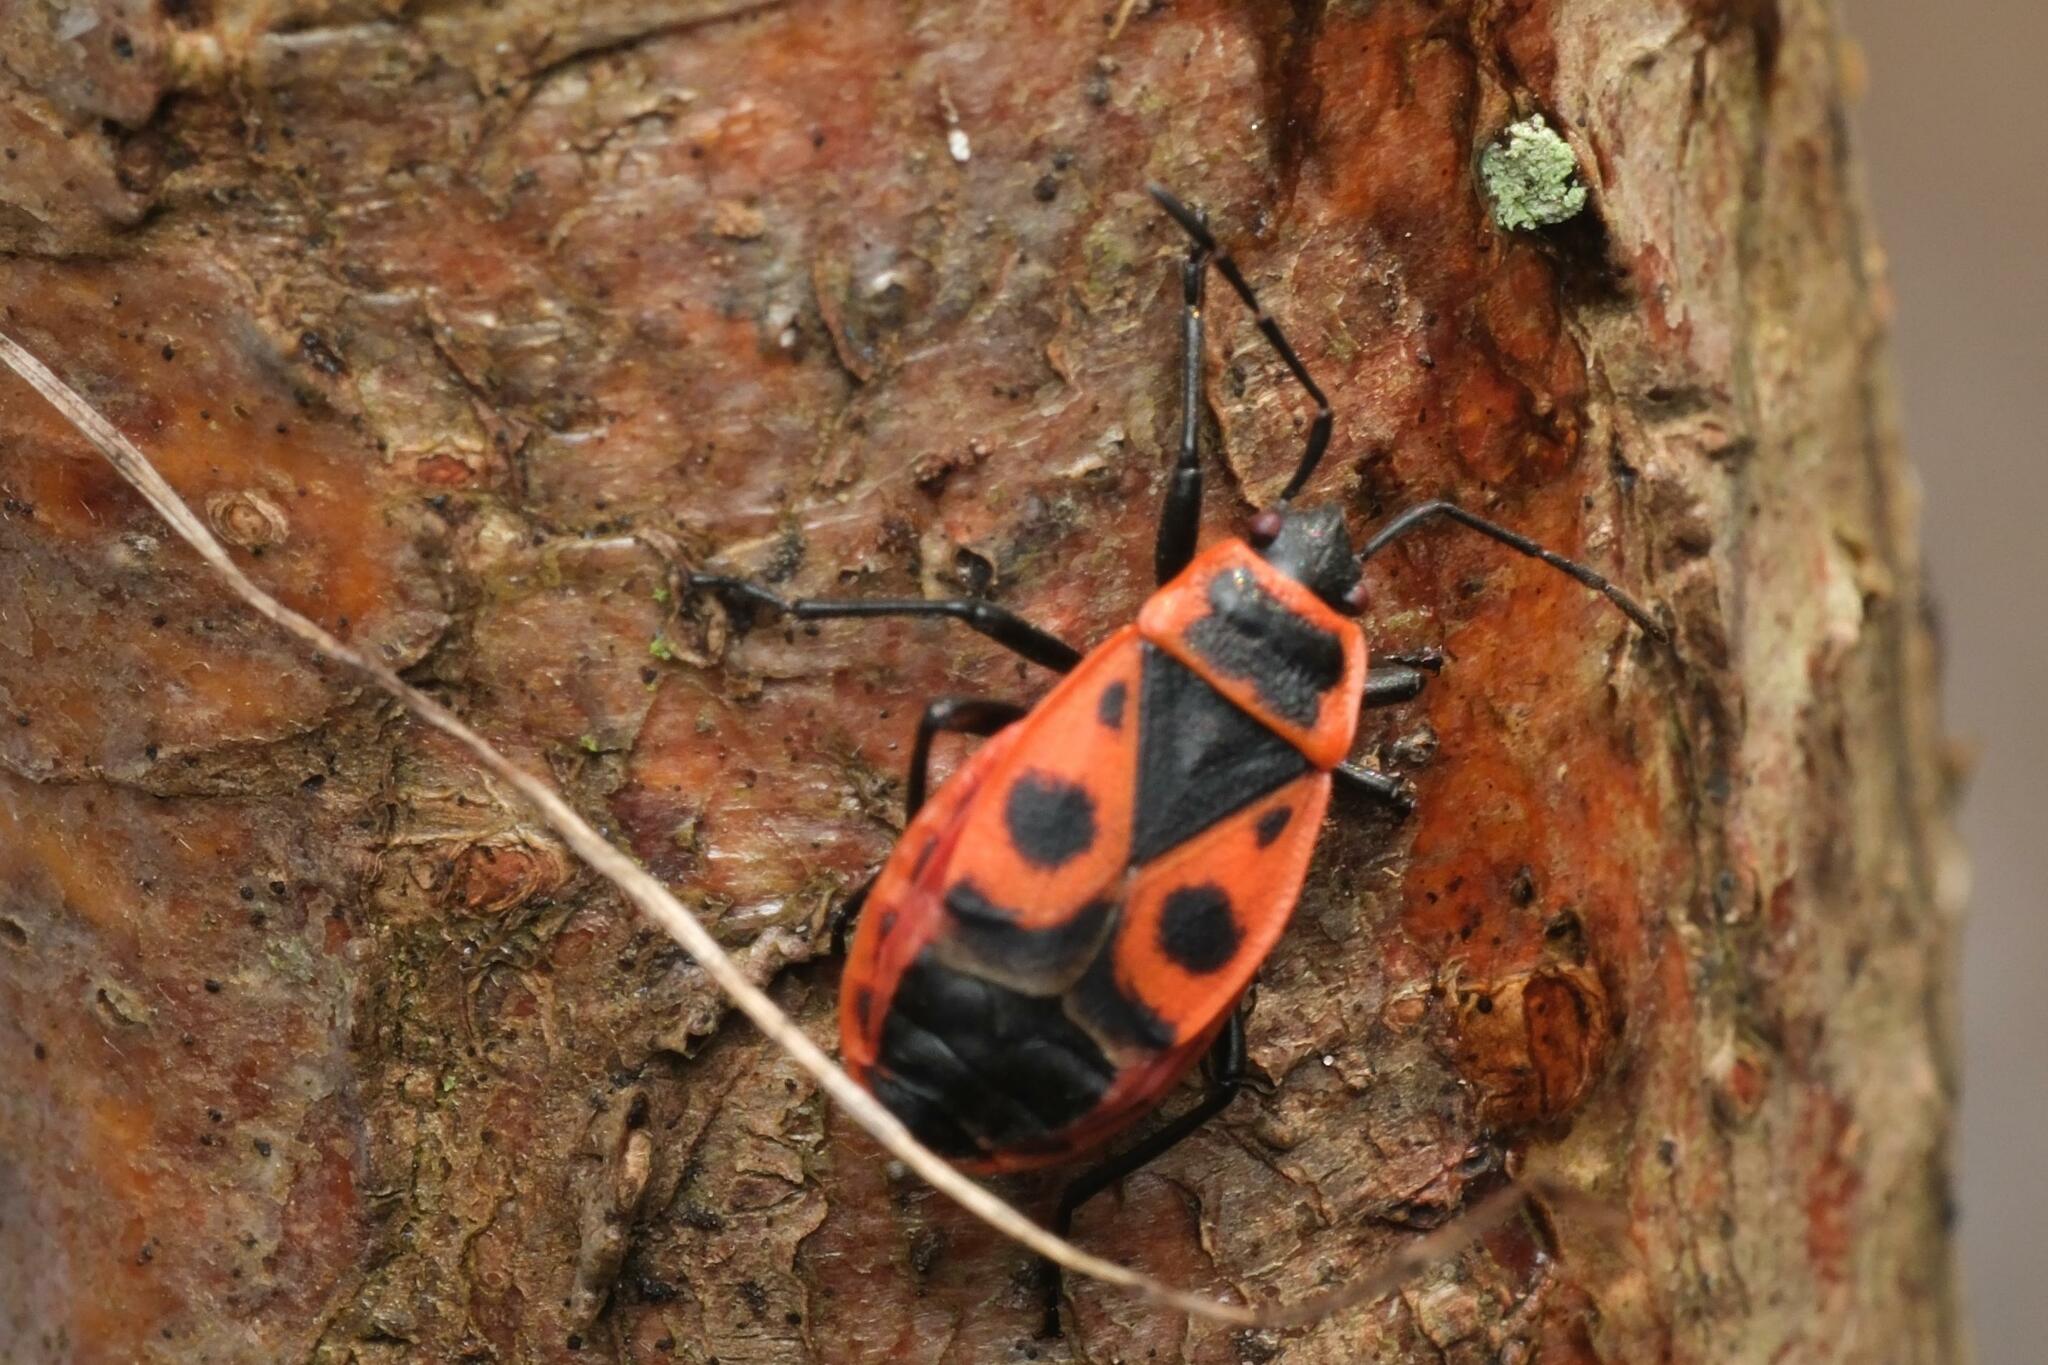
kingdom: Animalia
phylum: Arthropoda
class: Insecta
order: Hemiptera
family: Pyrrhocoridae
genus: Pyrrhocoris
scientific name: Pyrrhocoris apterus
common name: Firebug
